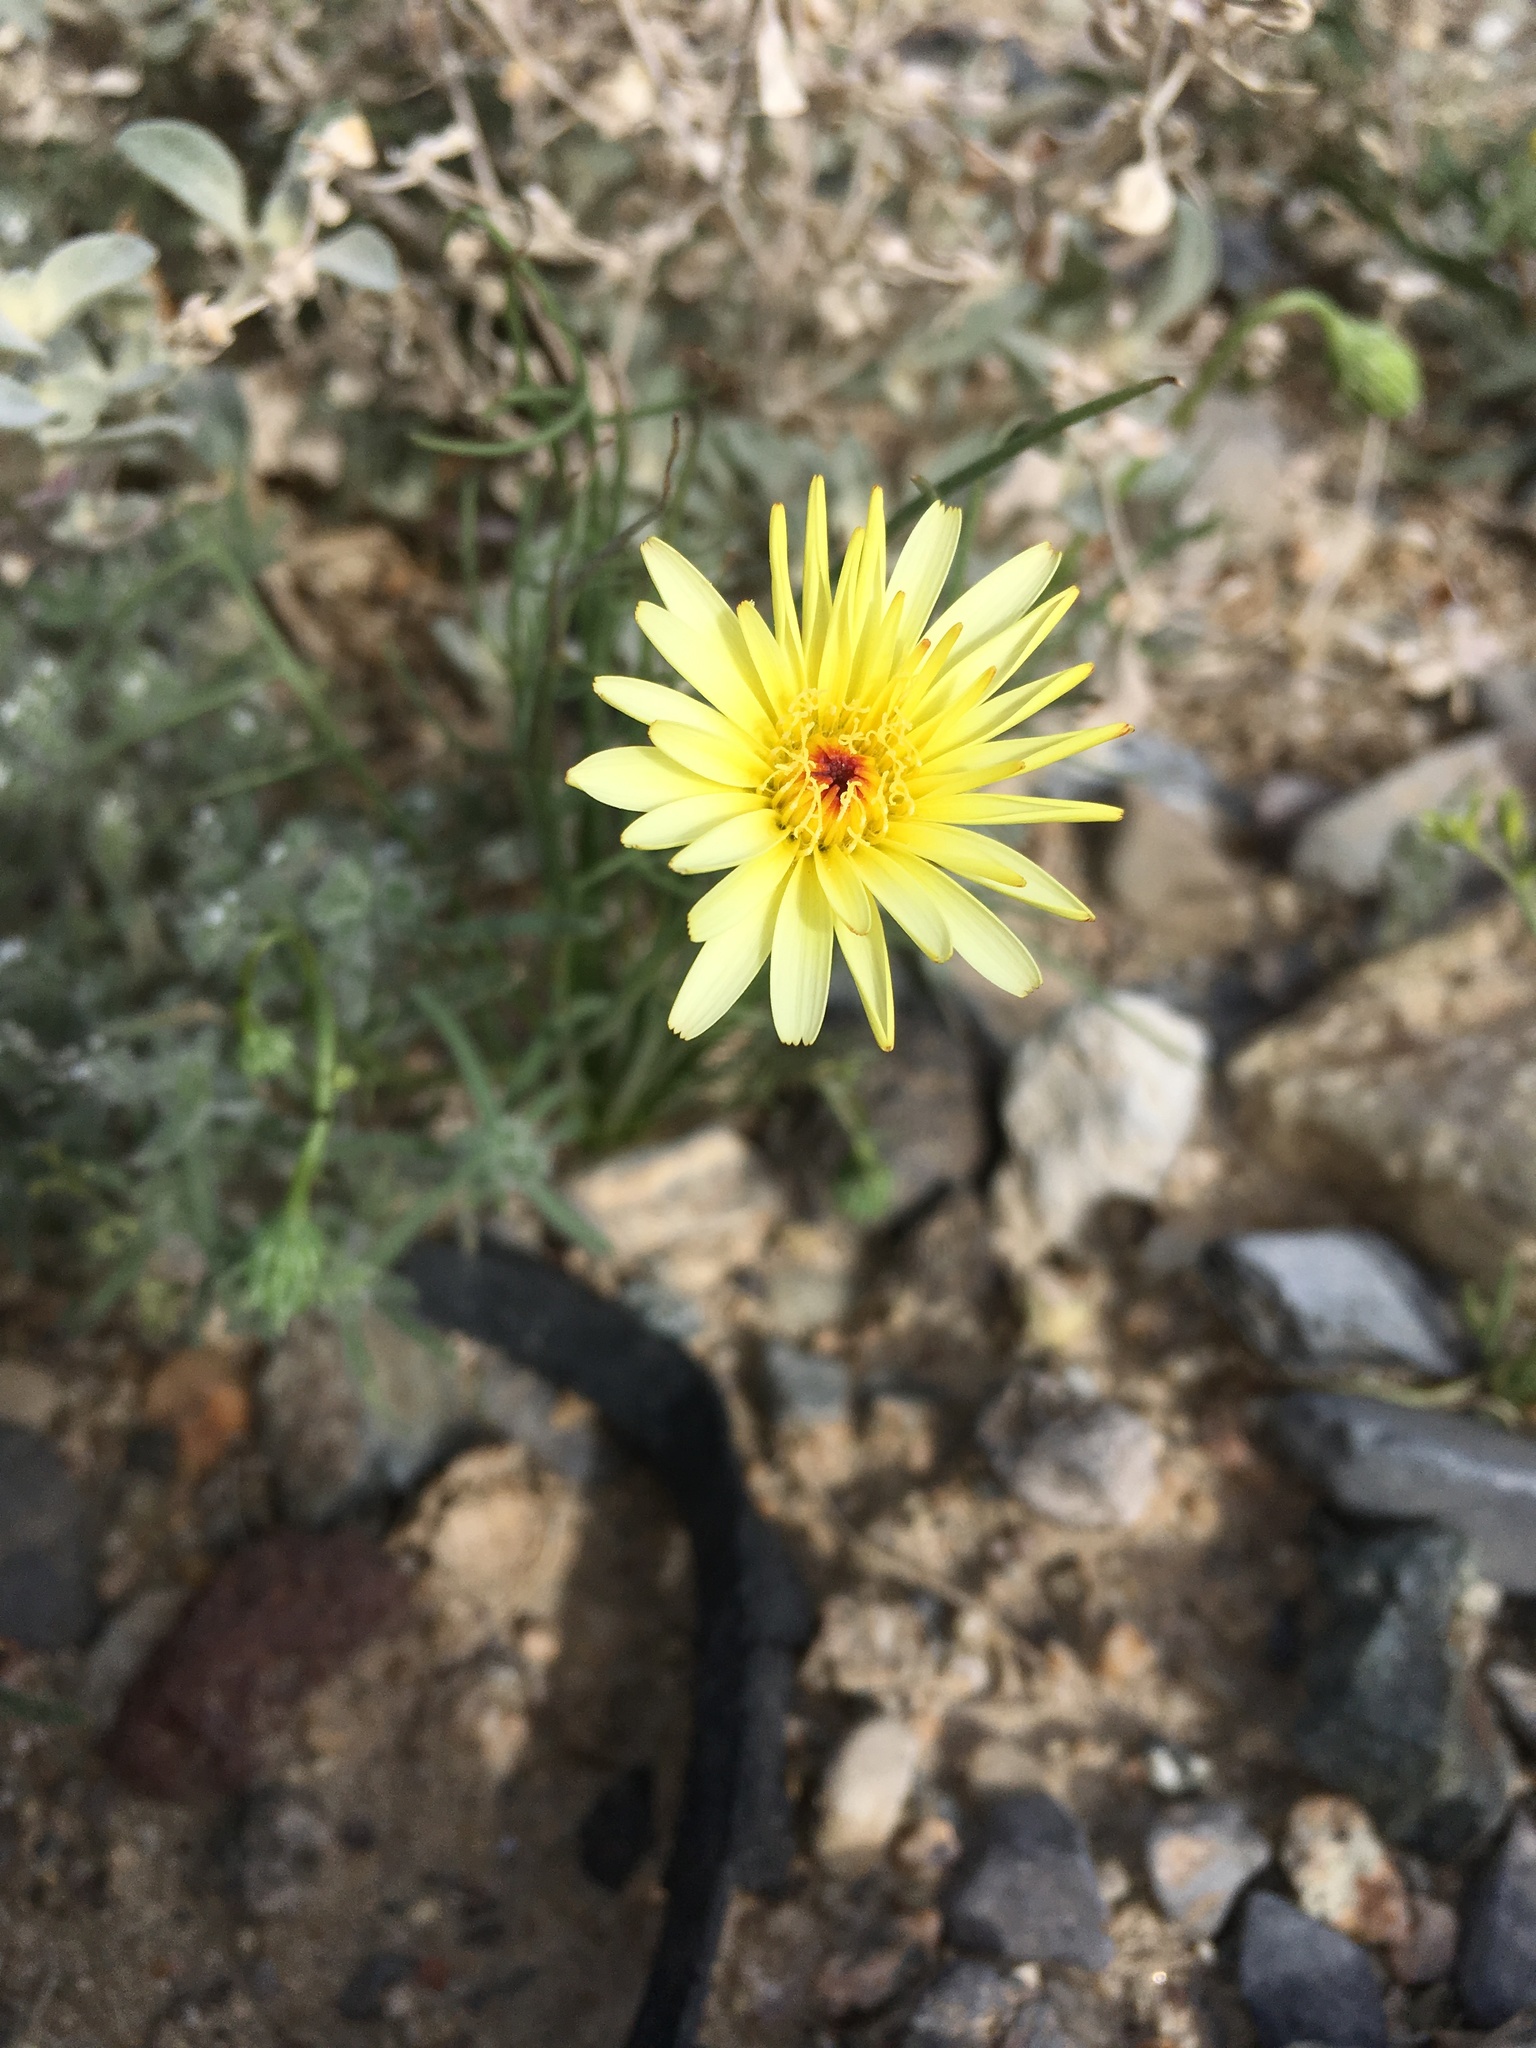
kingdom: Plantae
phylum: Tracheophyta
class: Magnoliopsida
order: Asterales
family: Asteraceae
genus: Malacothrix
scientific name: Malacothrix glabrata
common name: Smooth desert-dandelion
